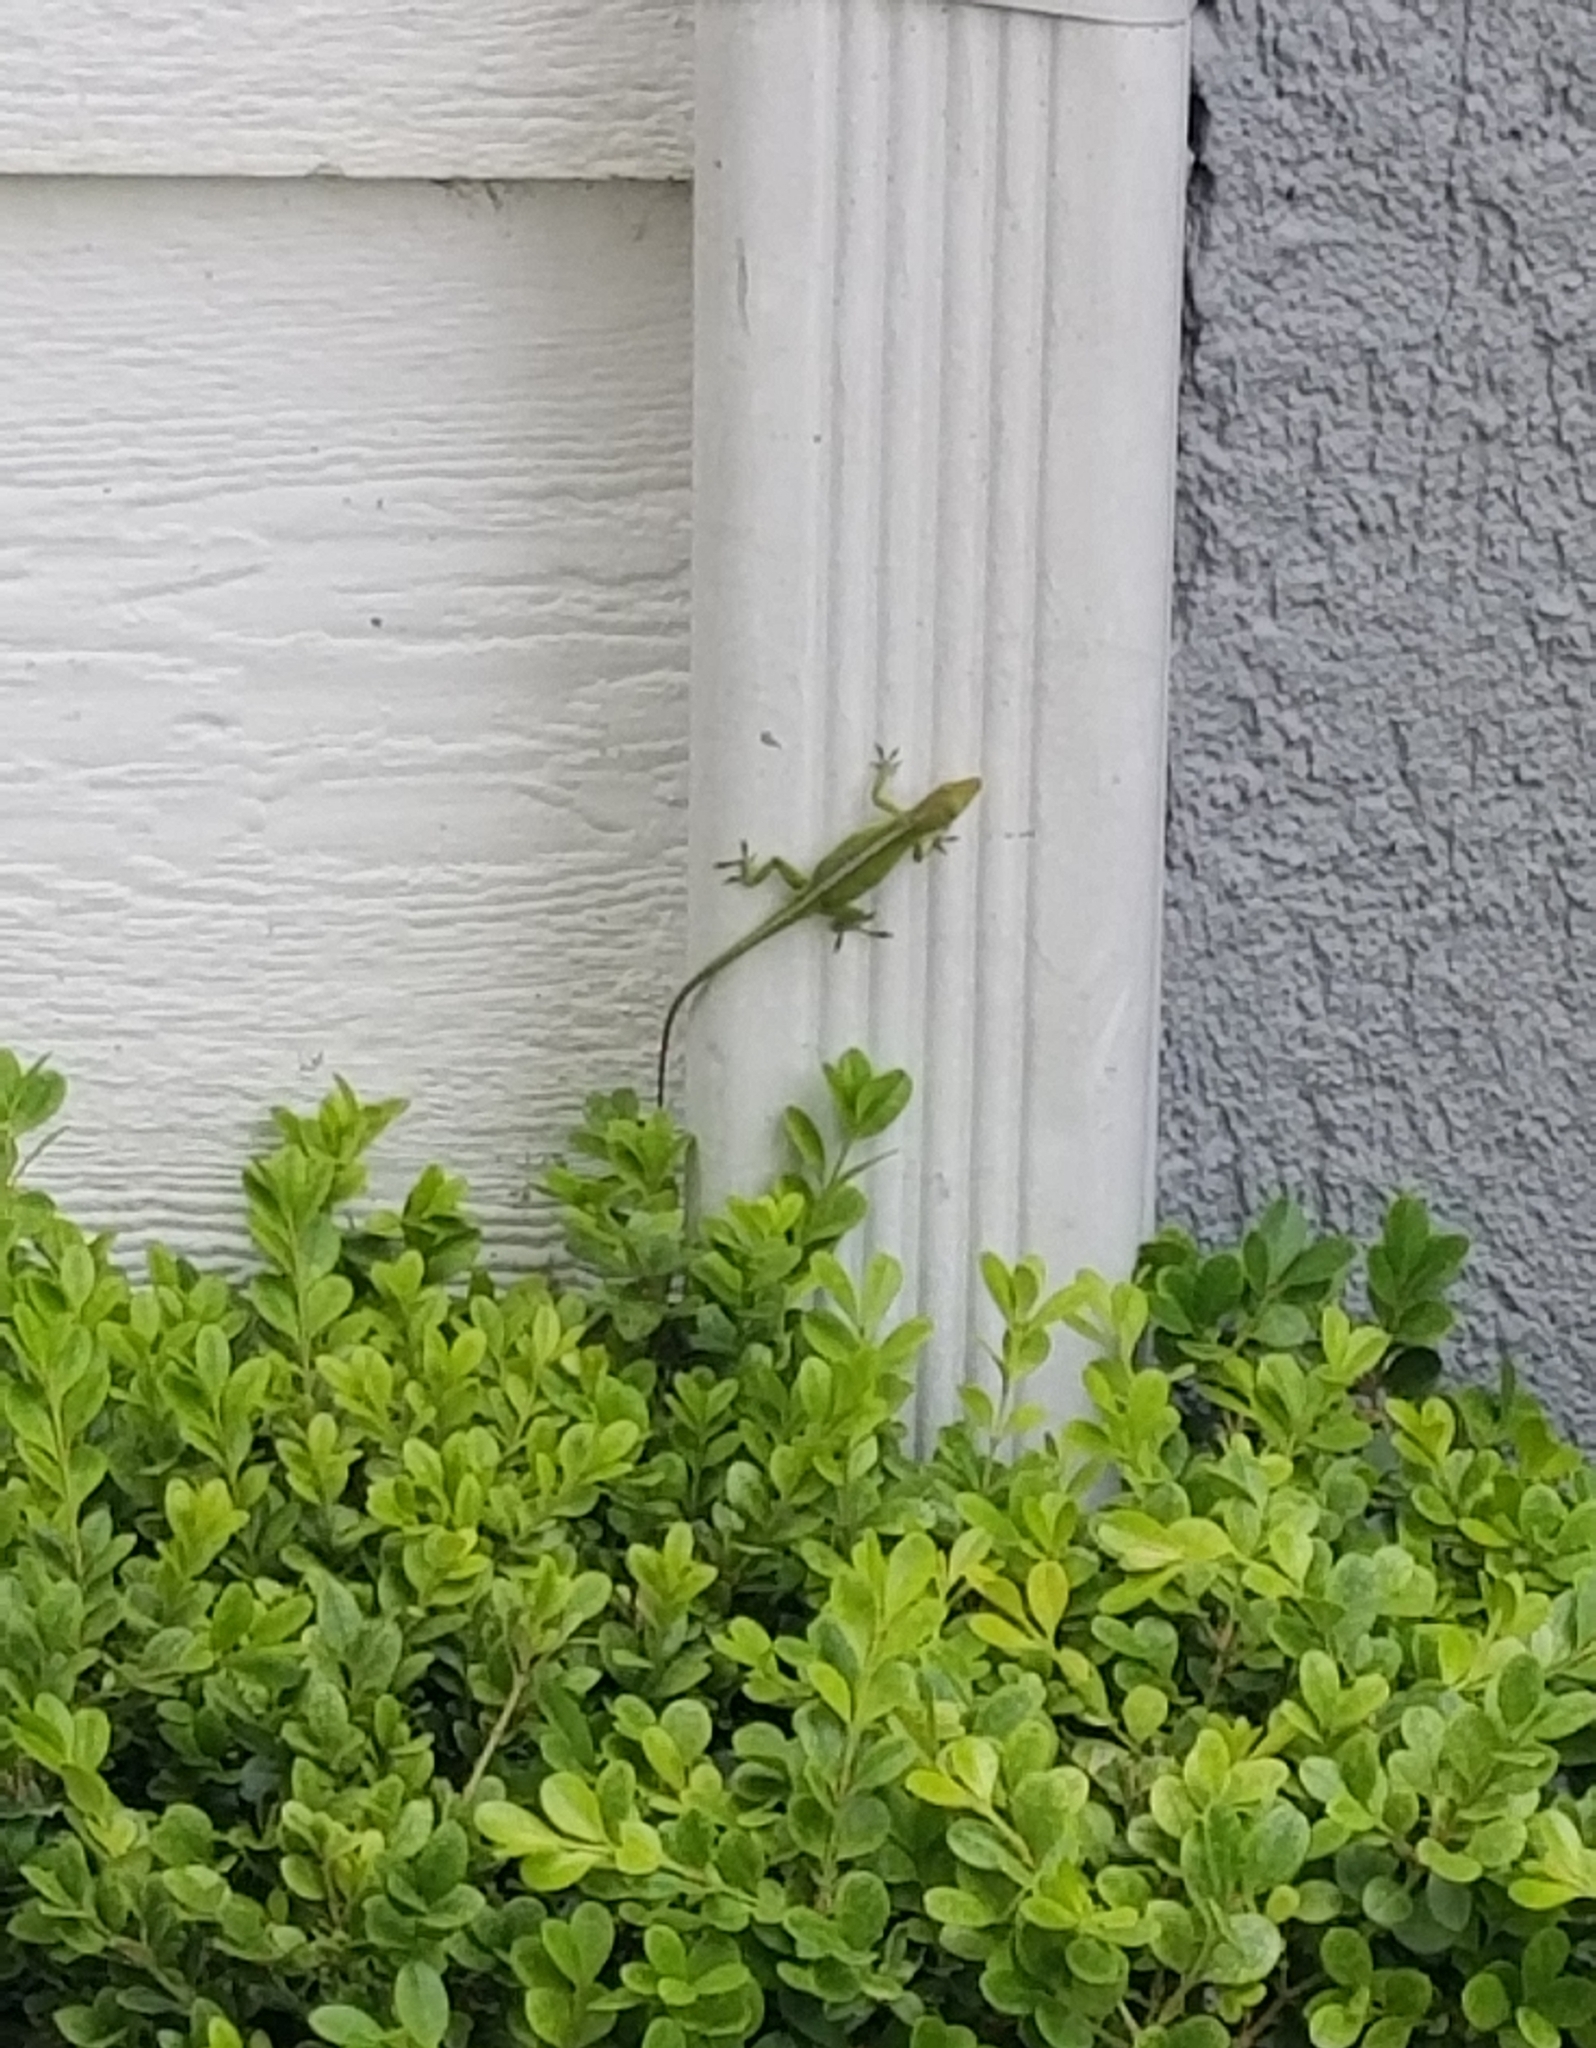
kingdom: Animalia
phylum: Chordata
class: Squamata
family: Dactyloidae
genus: Anolis
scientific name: Anolis carolinensis
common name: Green anole
